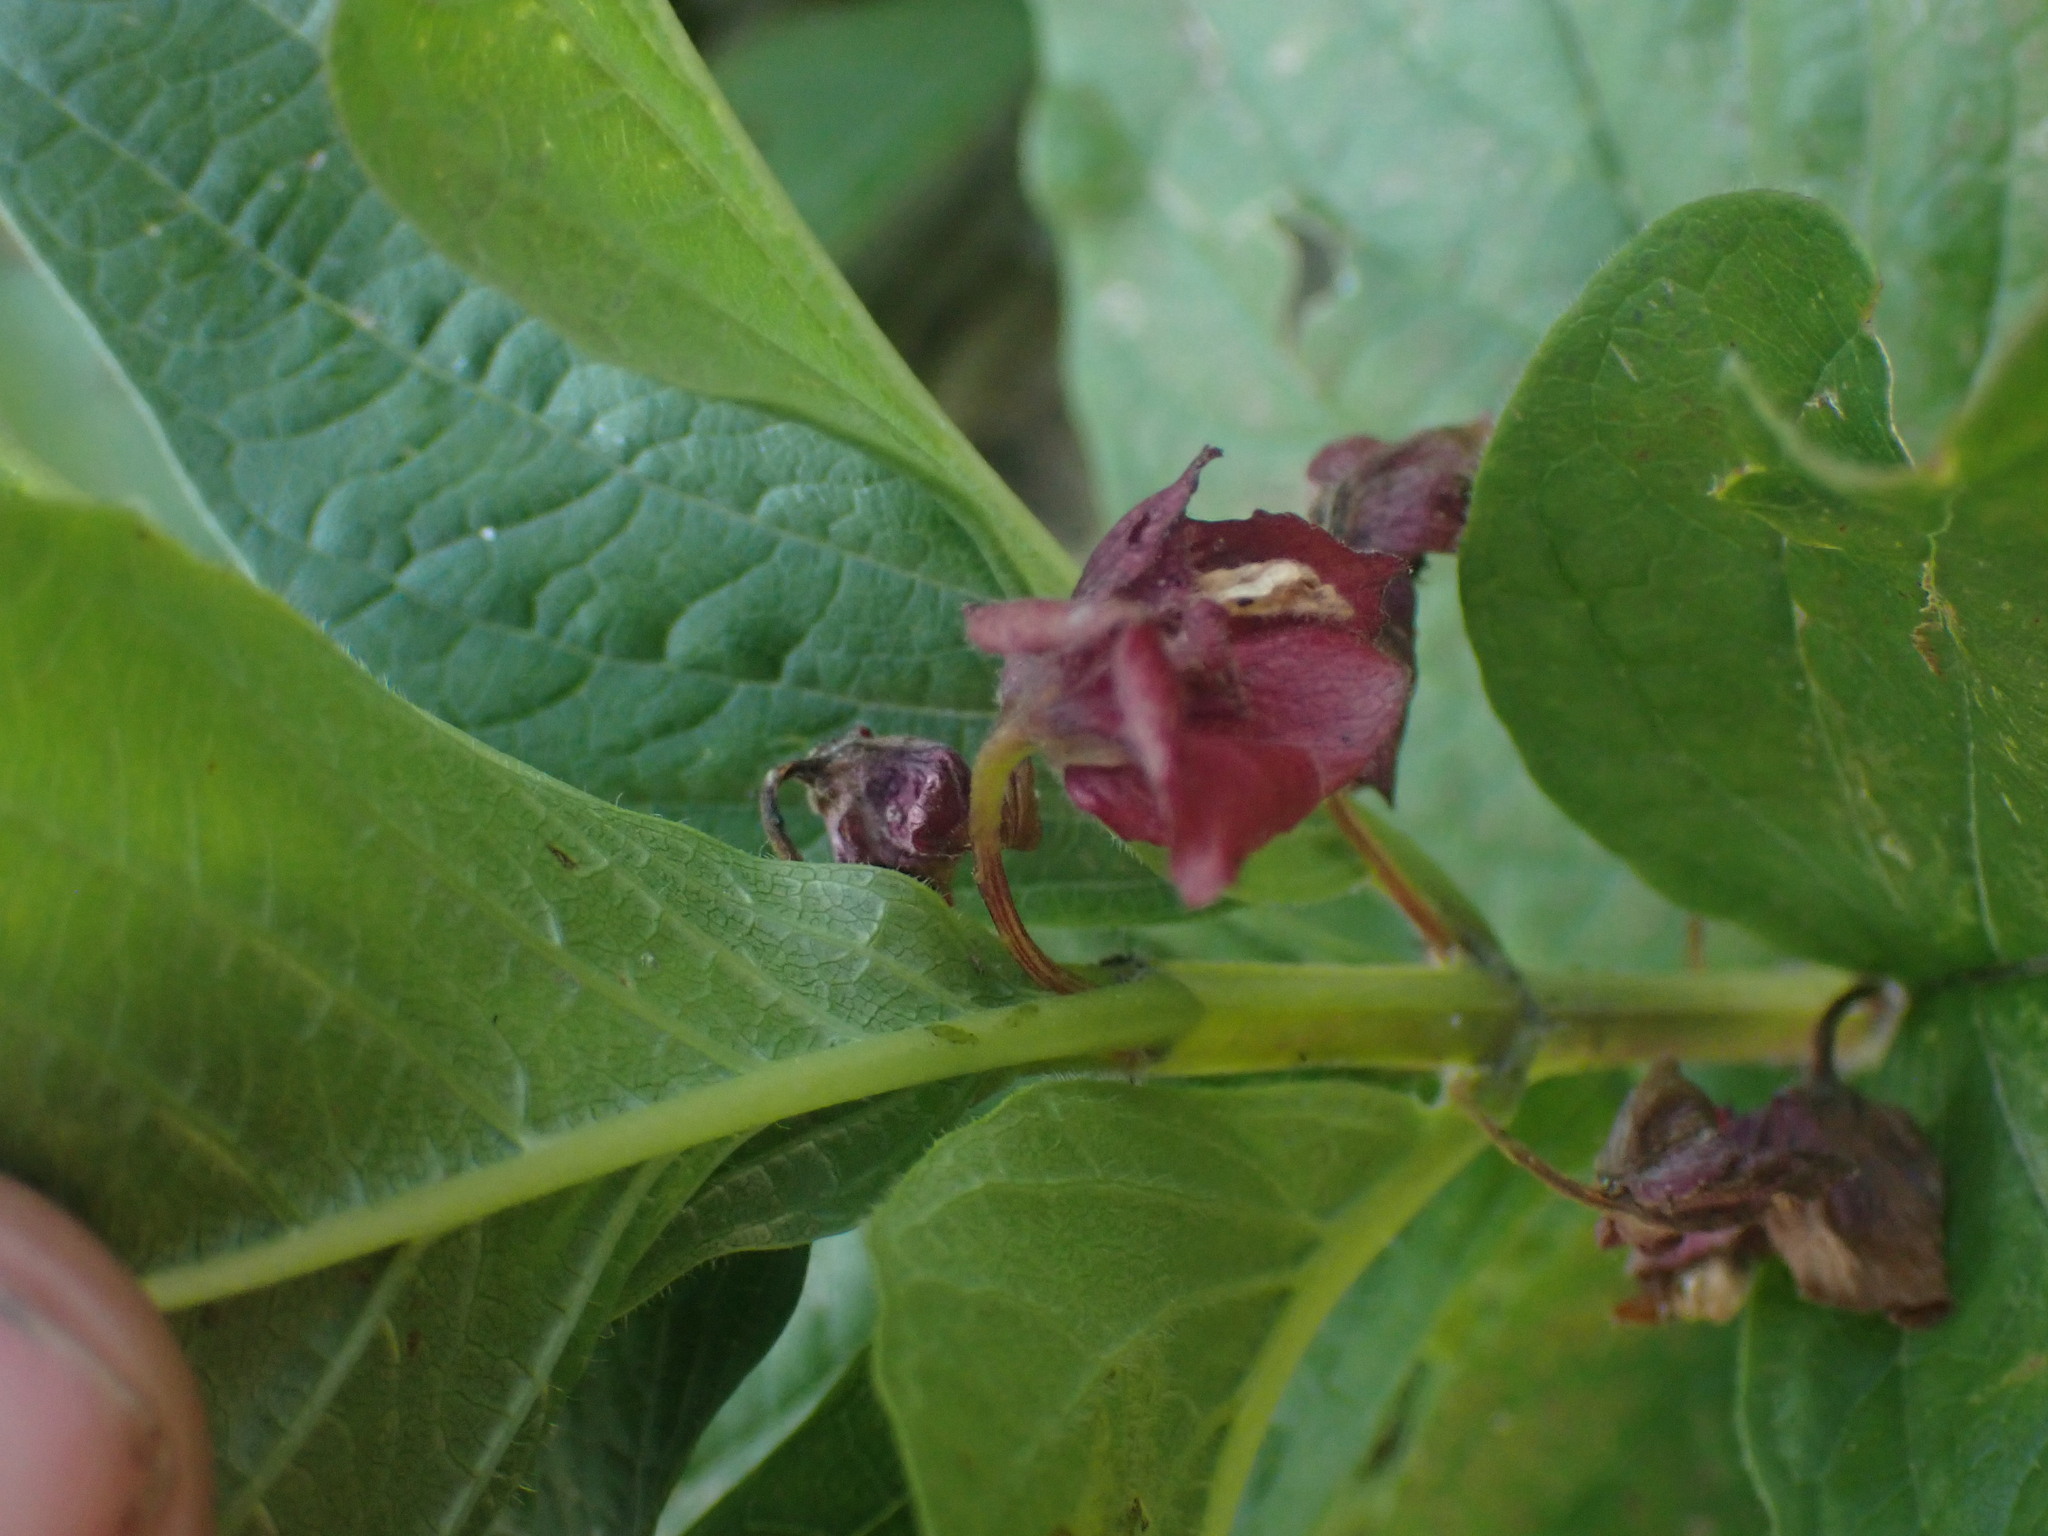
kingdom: Plantae
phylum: Tracheophyta
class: Magnoliopsida
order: Dipsacales
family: Caprifoliaceae
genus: Lonicera
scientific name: Lonicera involucrata
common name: Californian honeysuckle
